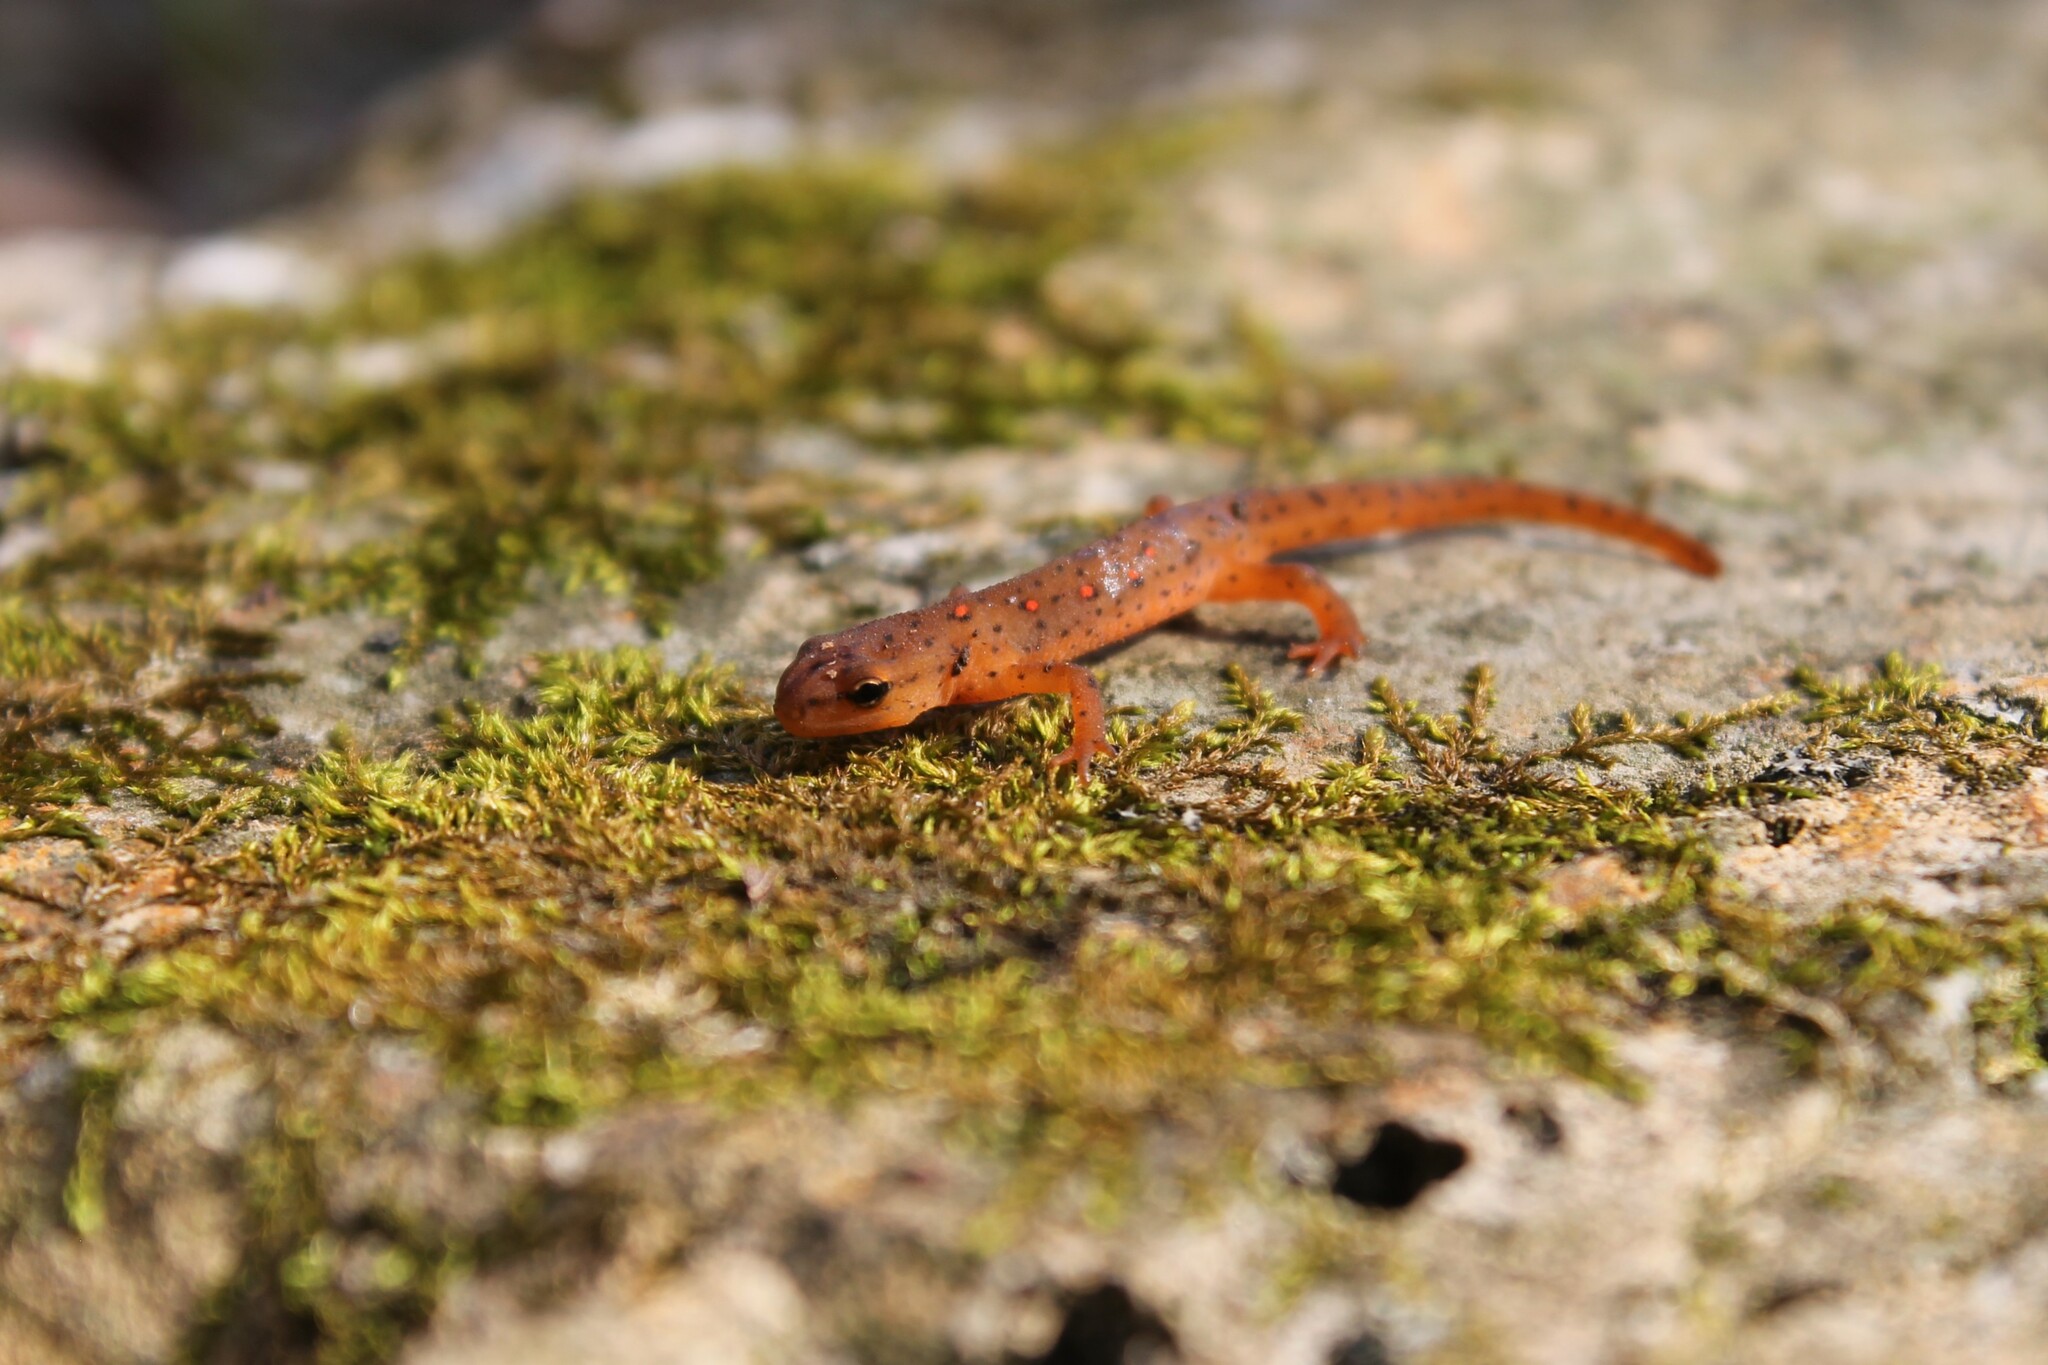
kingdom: Animalia
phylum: Chordata
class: Amphibia
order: Caudata
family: Salamandridae
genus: Notophthalmus
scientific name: Notophthalmus viridescens
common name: Eastern newt
